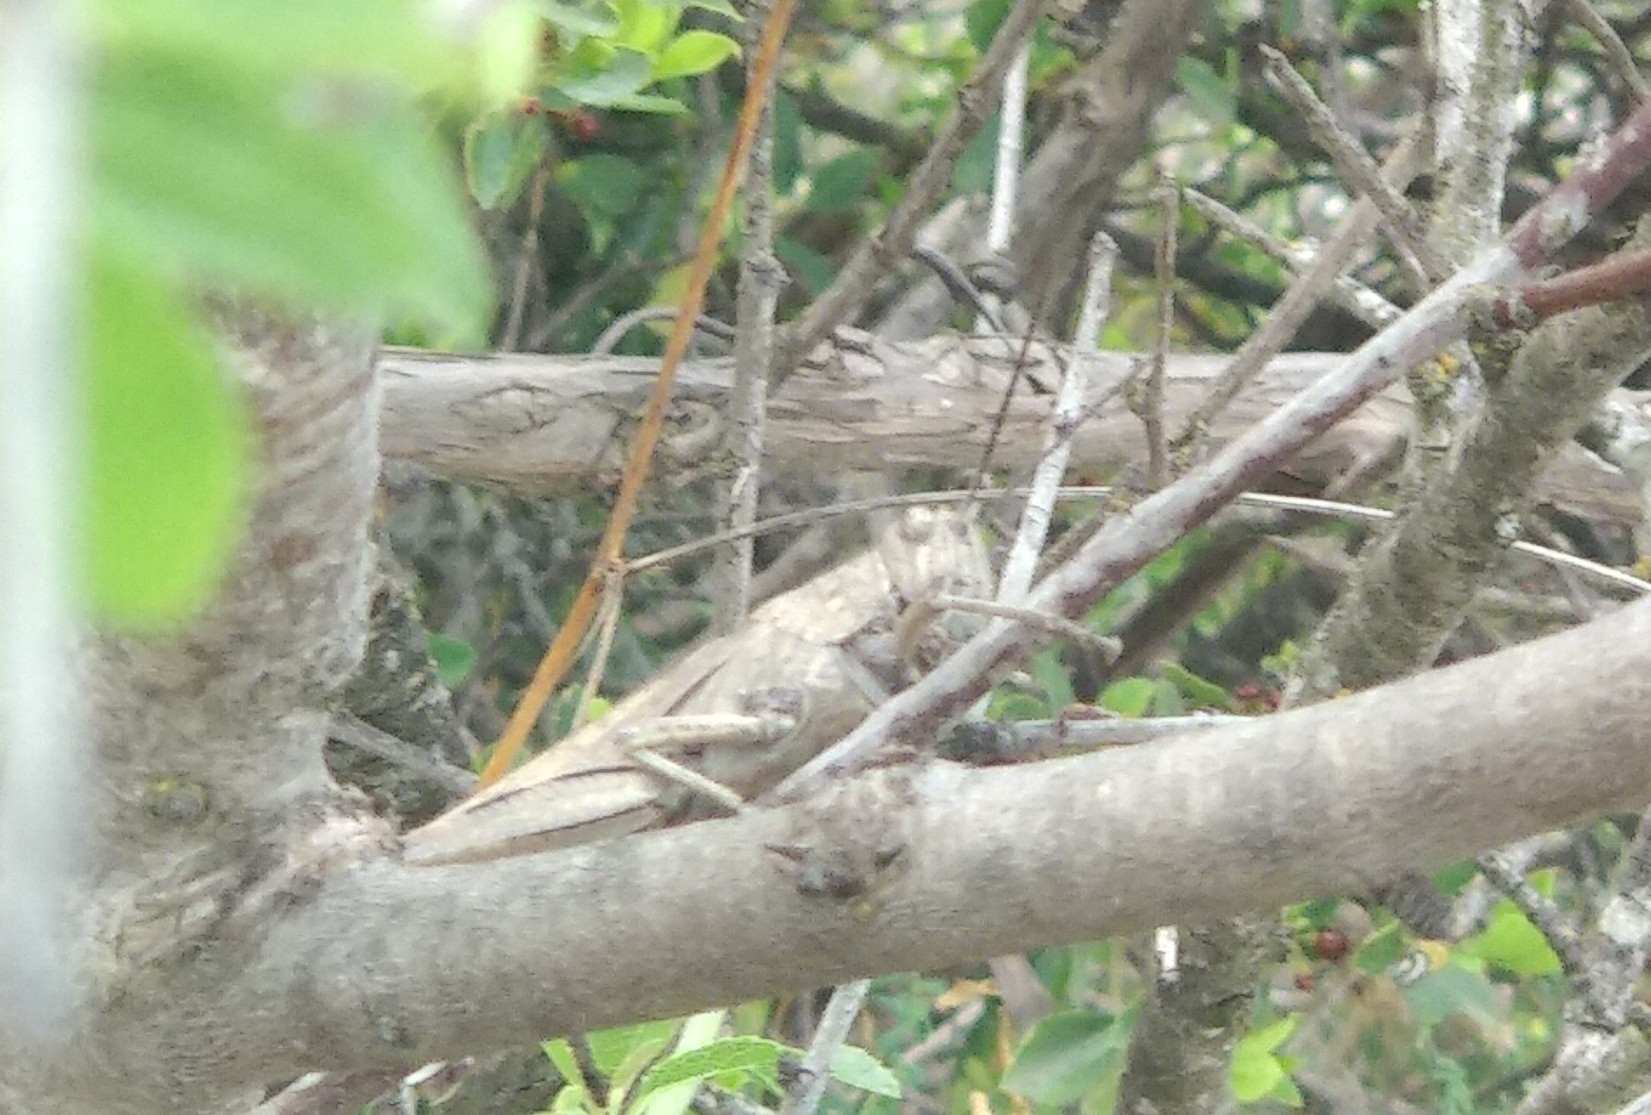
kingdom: Animalia
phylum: Arthropoda
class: Insecta
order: Orthoptera
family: Acrididae
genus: Anacridium
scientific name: Anacridium aegyptium
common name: Egyptian grasshopper
